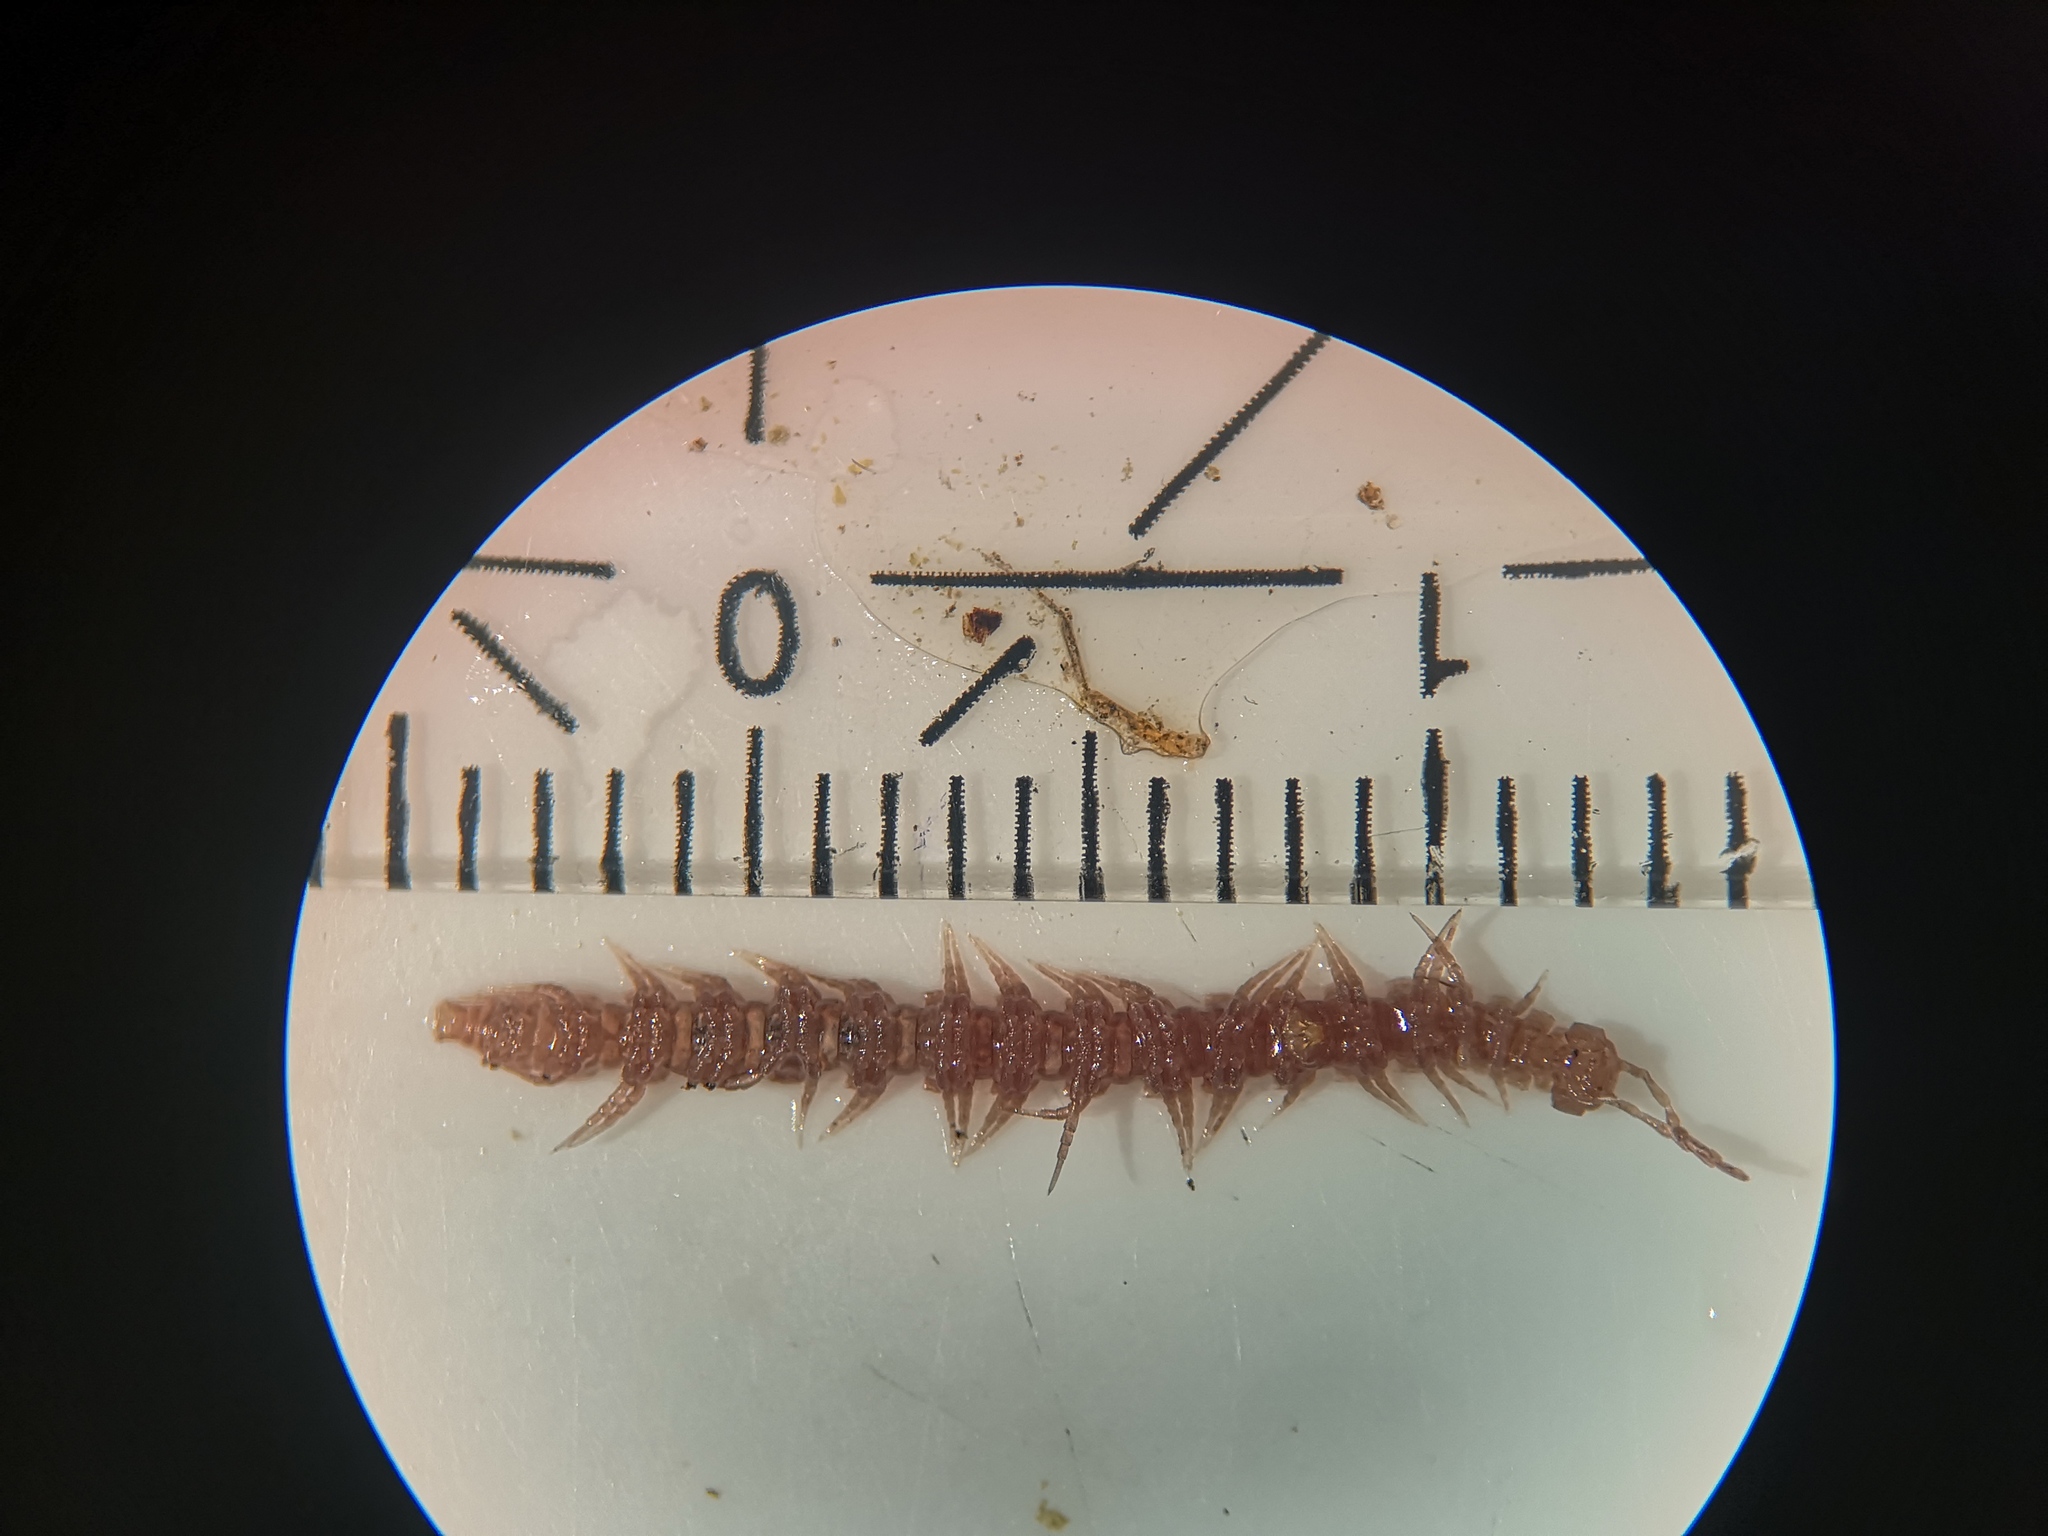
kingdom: Animalia
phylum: Arthropoda
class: Diplopoda
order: Polydesmida
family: Polydesmidae
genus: Polydesmus
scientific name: Polydesmus denticulatus
